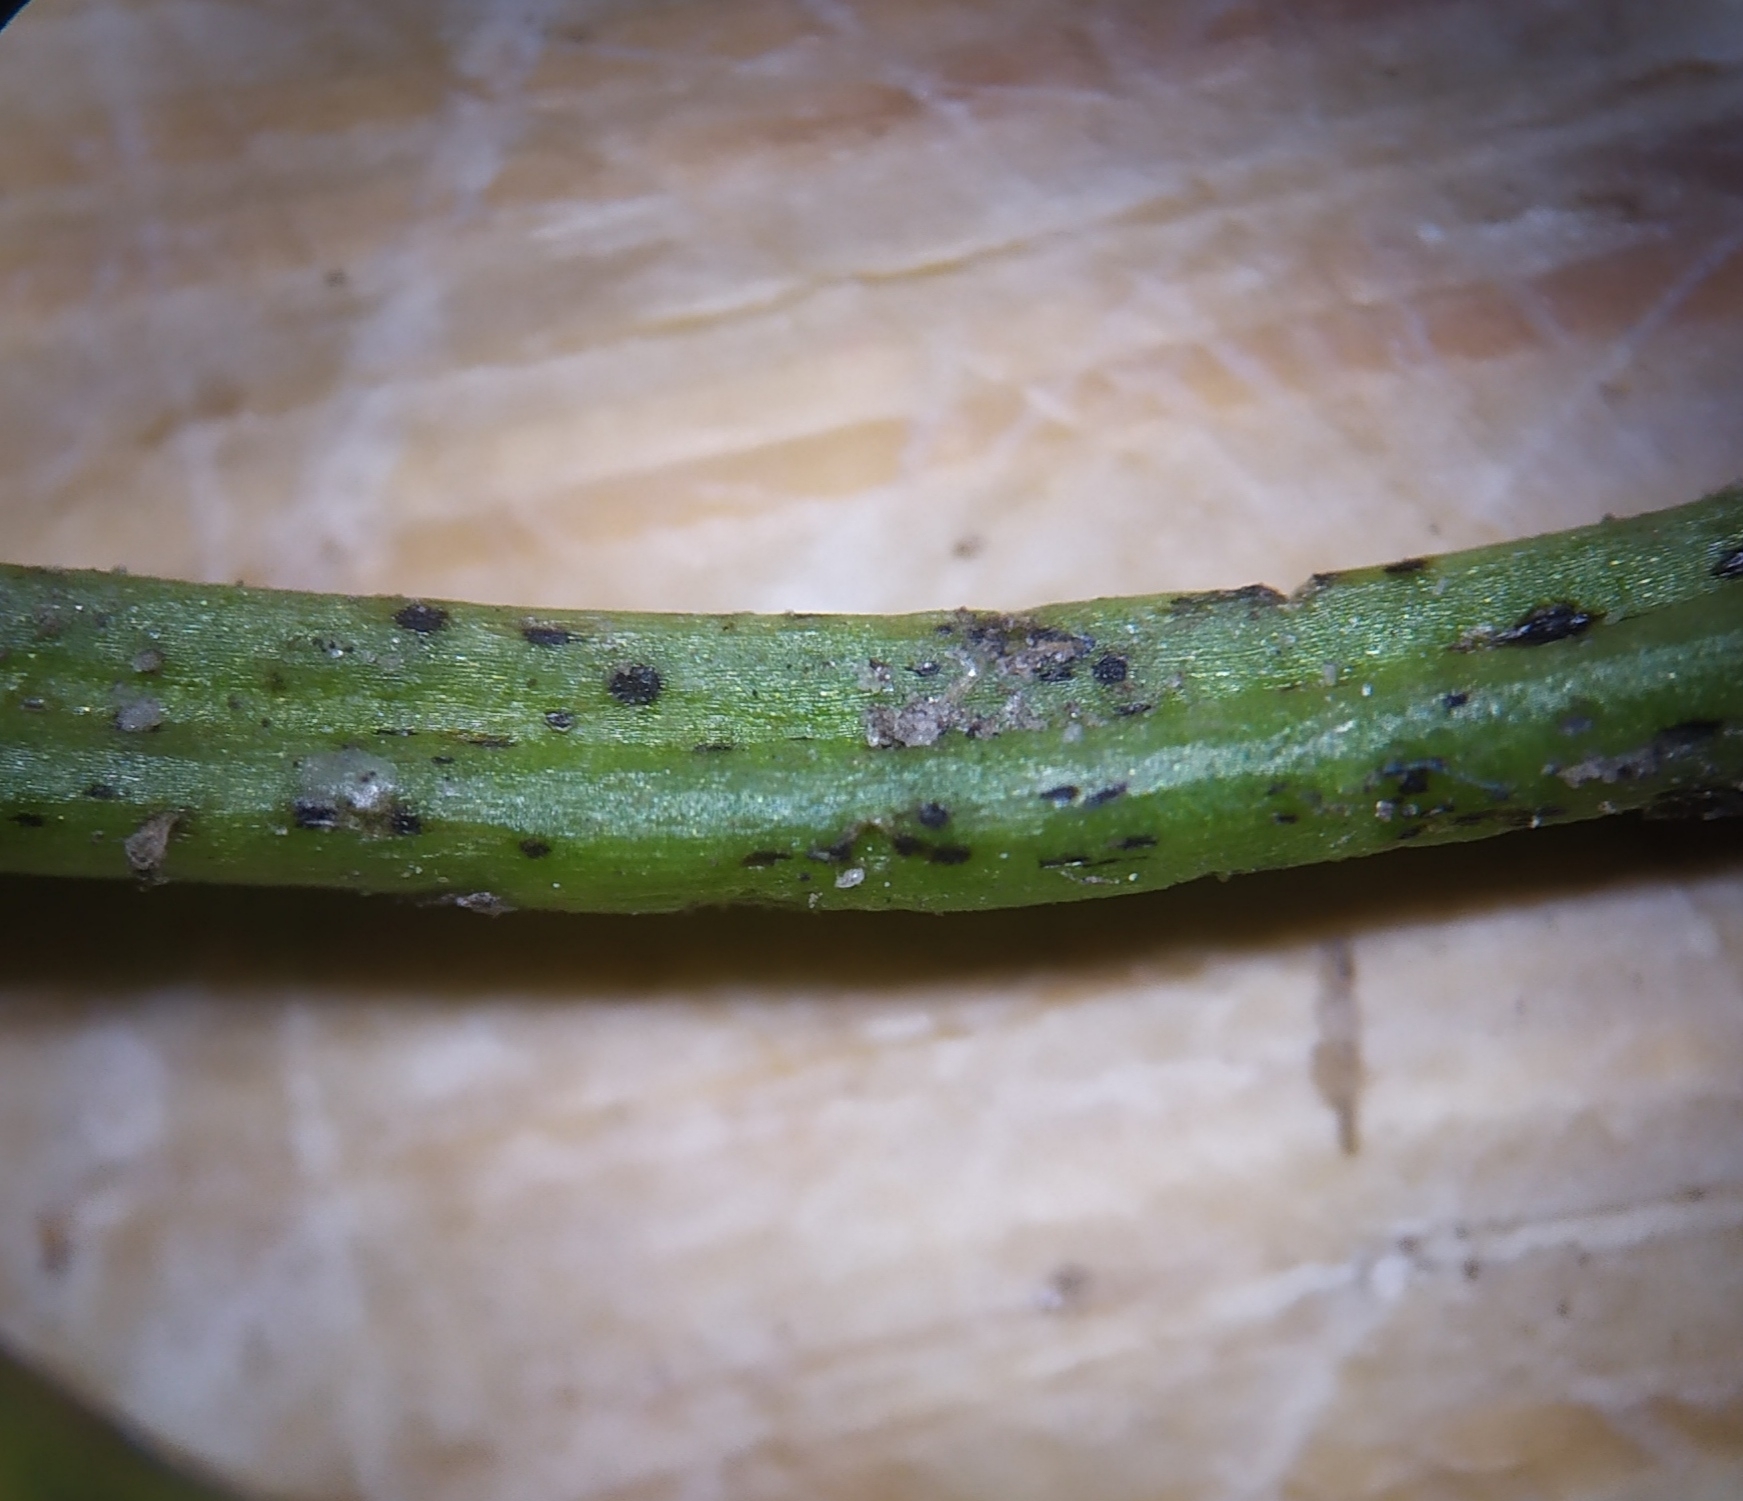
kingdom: Fungi
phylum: Ascomycota
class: Leotiomycetes
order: Helotiales
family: Drepanopezizaceae
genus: Pseudopeziza
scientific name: Pseudopeziza trifolii
